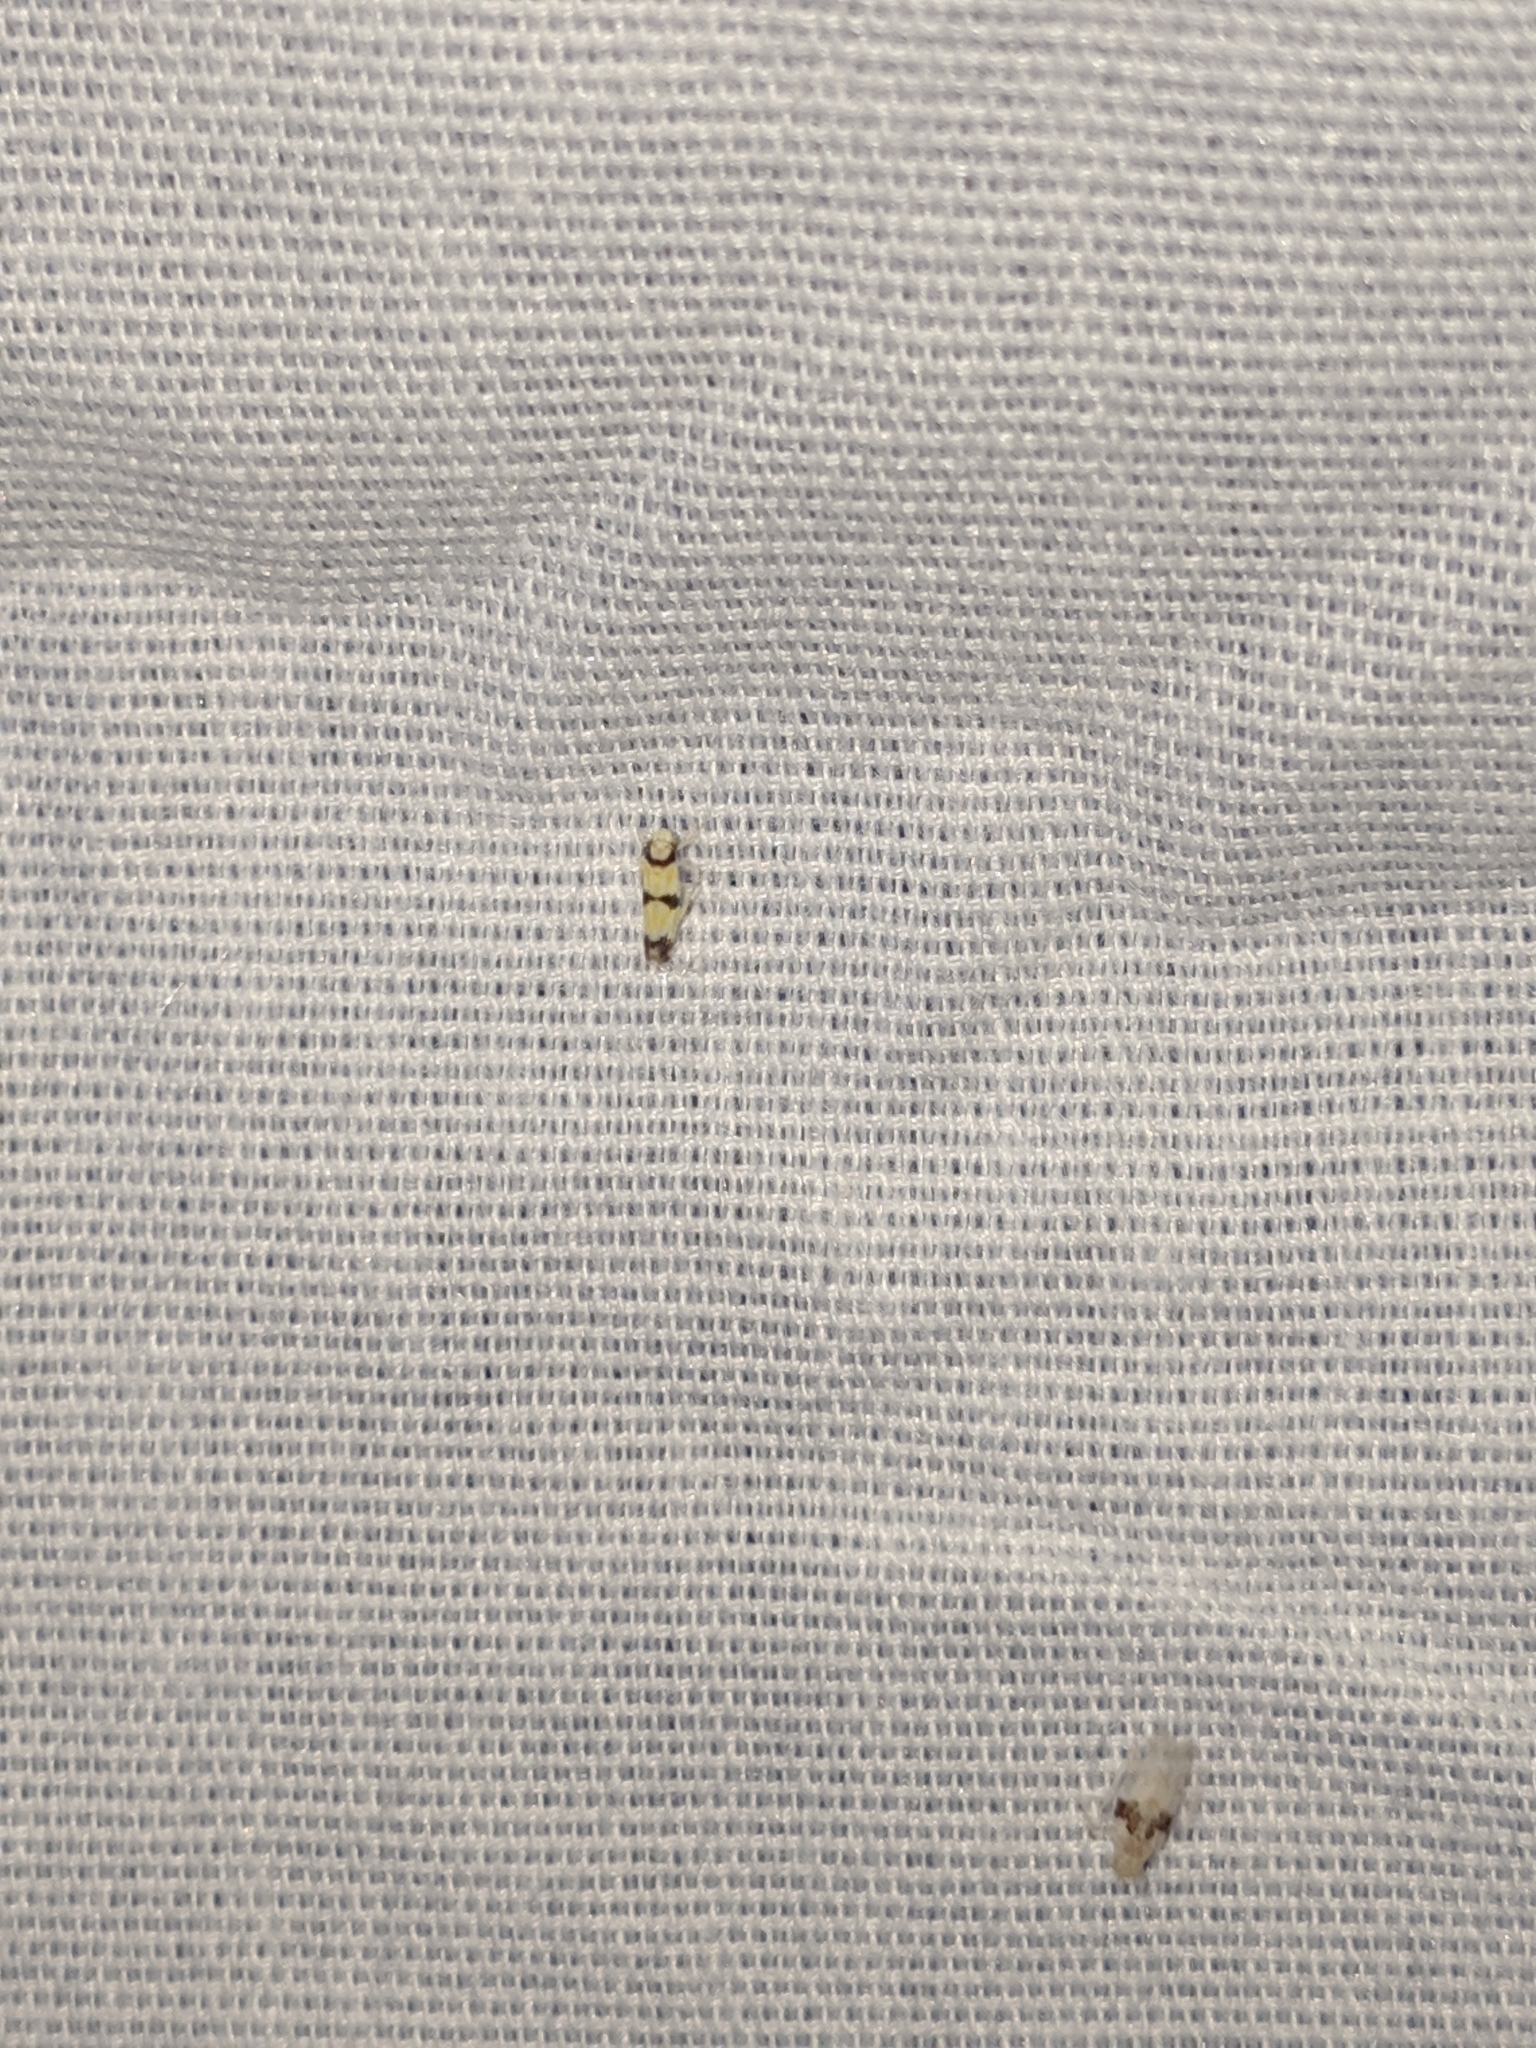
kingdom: Animalia
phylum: Arthropoda
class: Insecta
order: Hemiptera
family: Cicadellidae
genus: Erythroneura
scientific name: Erythroneura calycula
